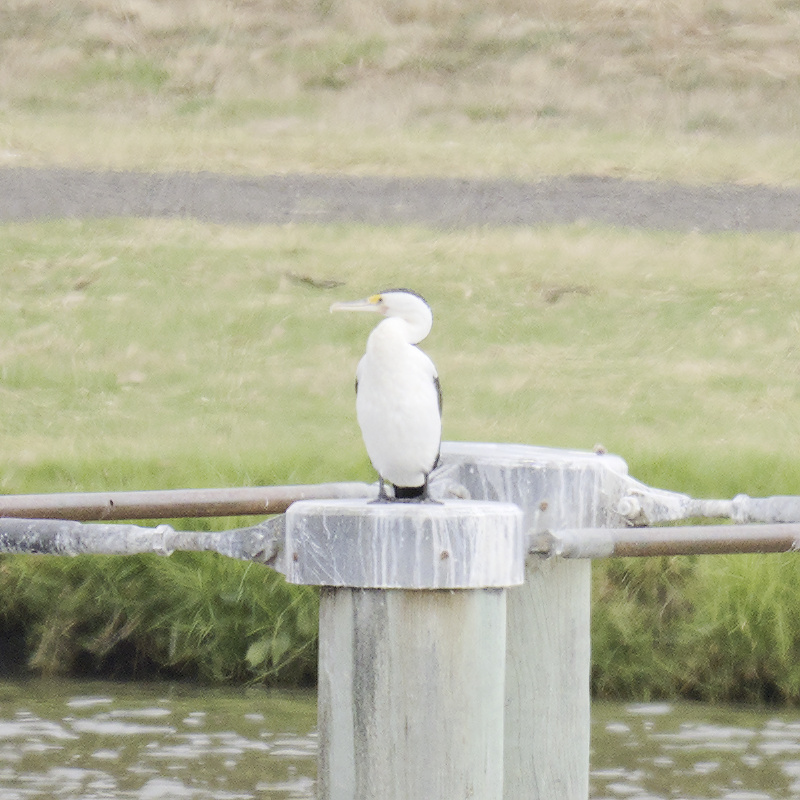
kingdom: Animalia
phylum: Chordata
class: Aves
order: Suliformes
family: Phalacrocoracidae
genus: Phalacrocorax
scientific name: Phalacrocorax varius
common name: Pied cormorant
